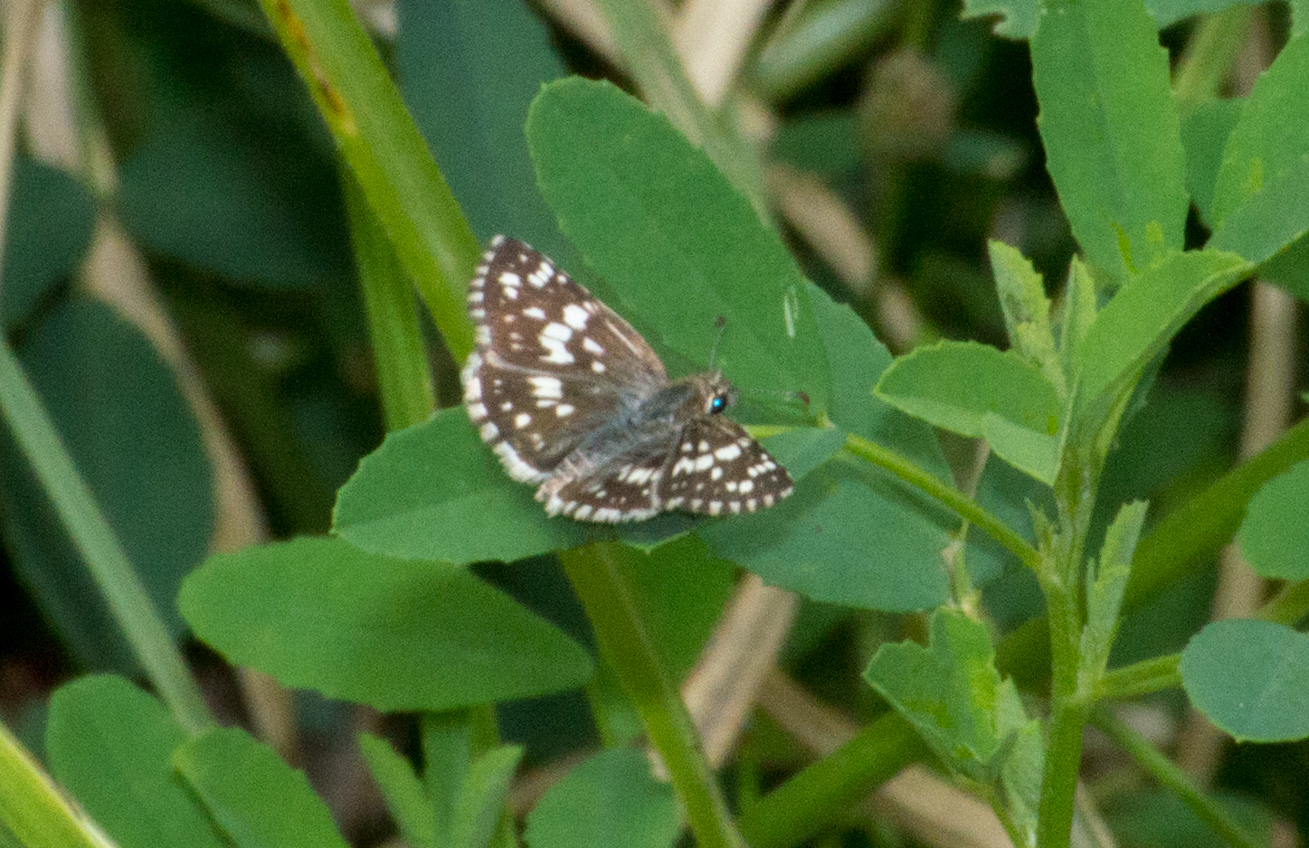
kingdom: Animalia
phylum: Arthropoda
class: Insecta
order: Lepidoptera
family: Hesperiidae
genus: Burnsius
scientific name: Burnsius orcynoides
